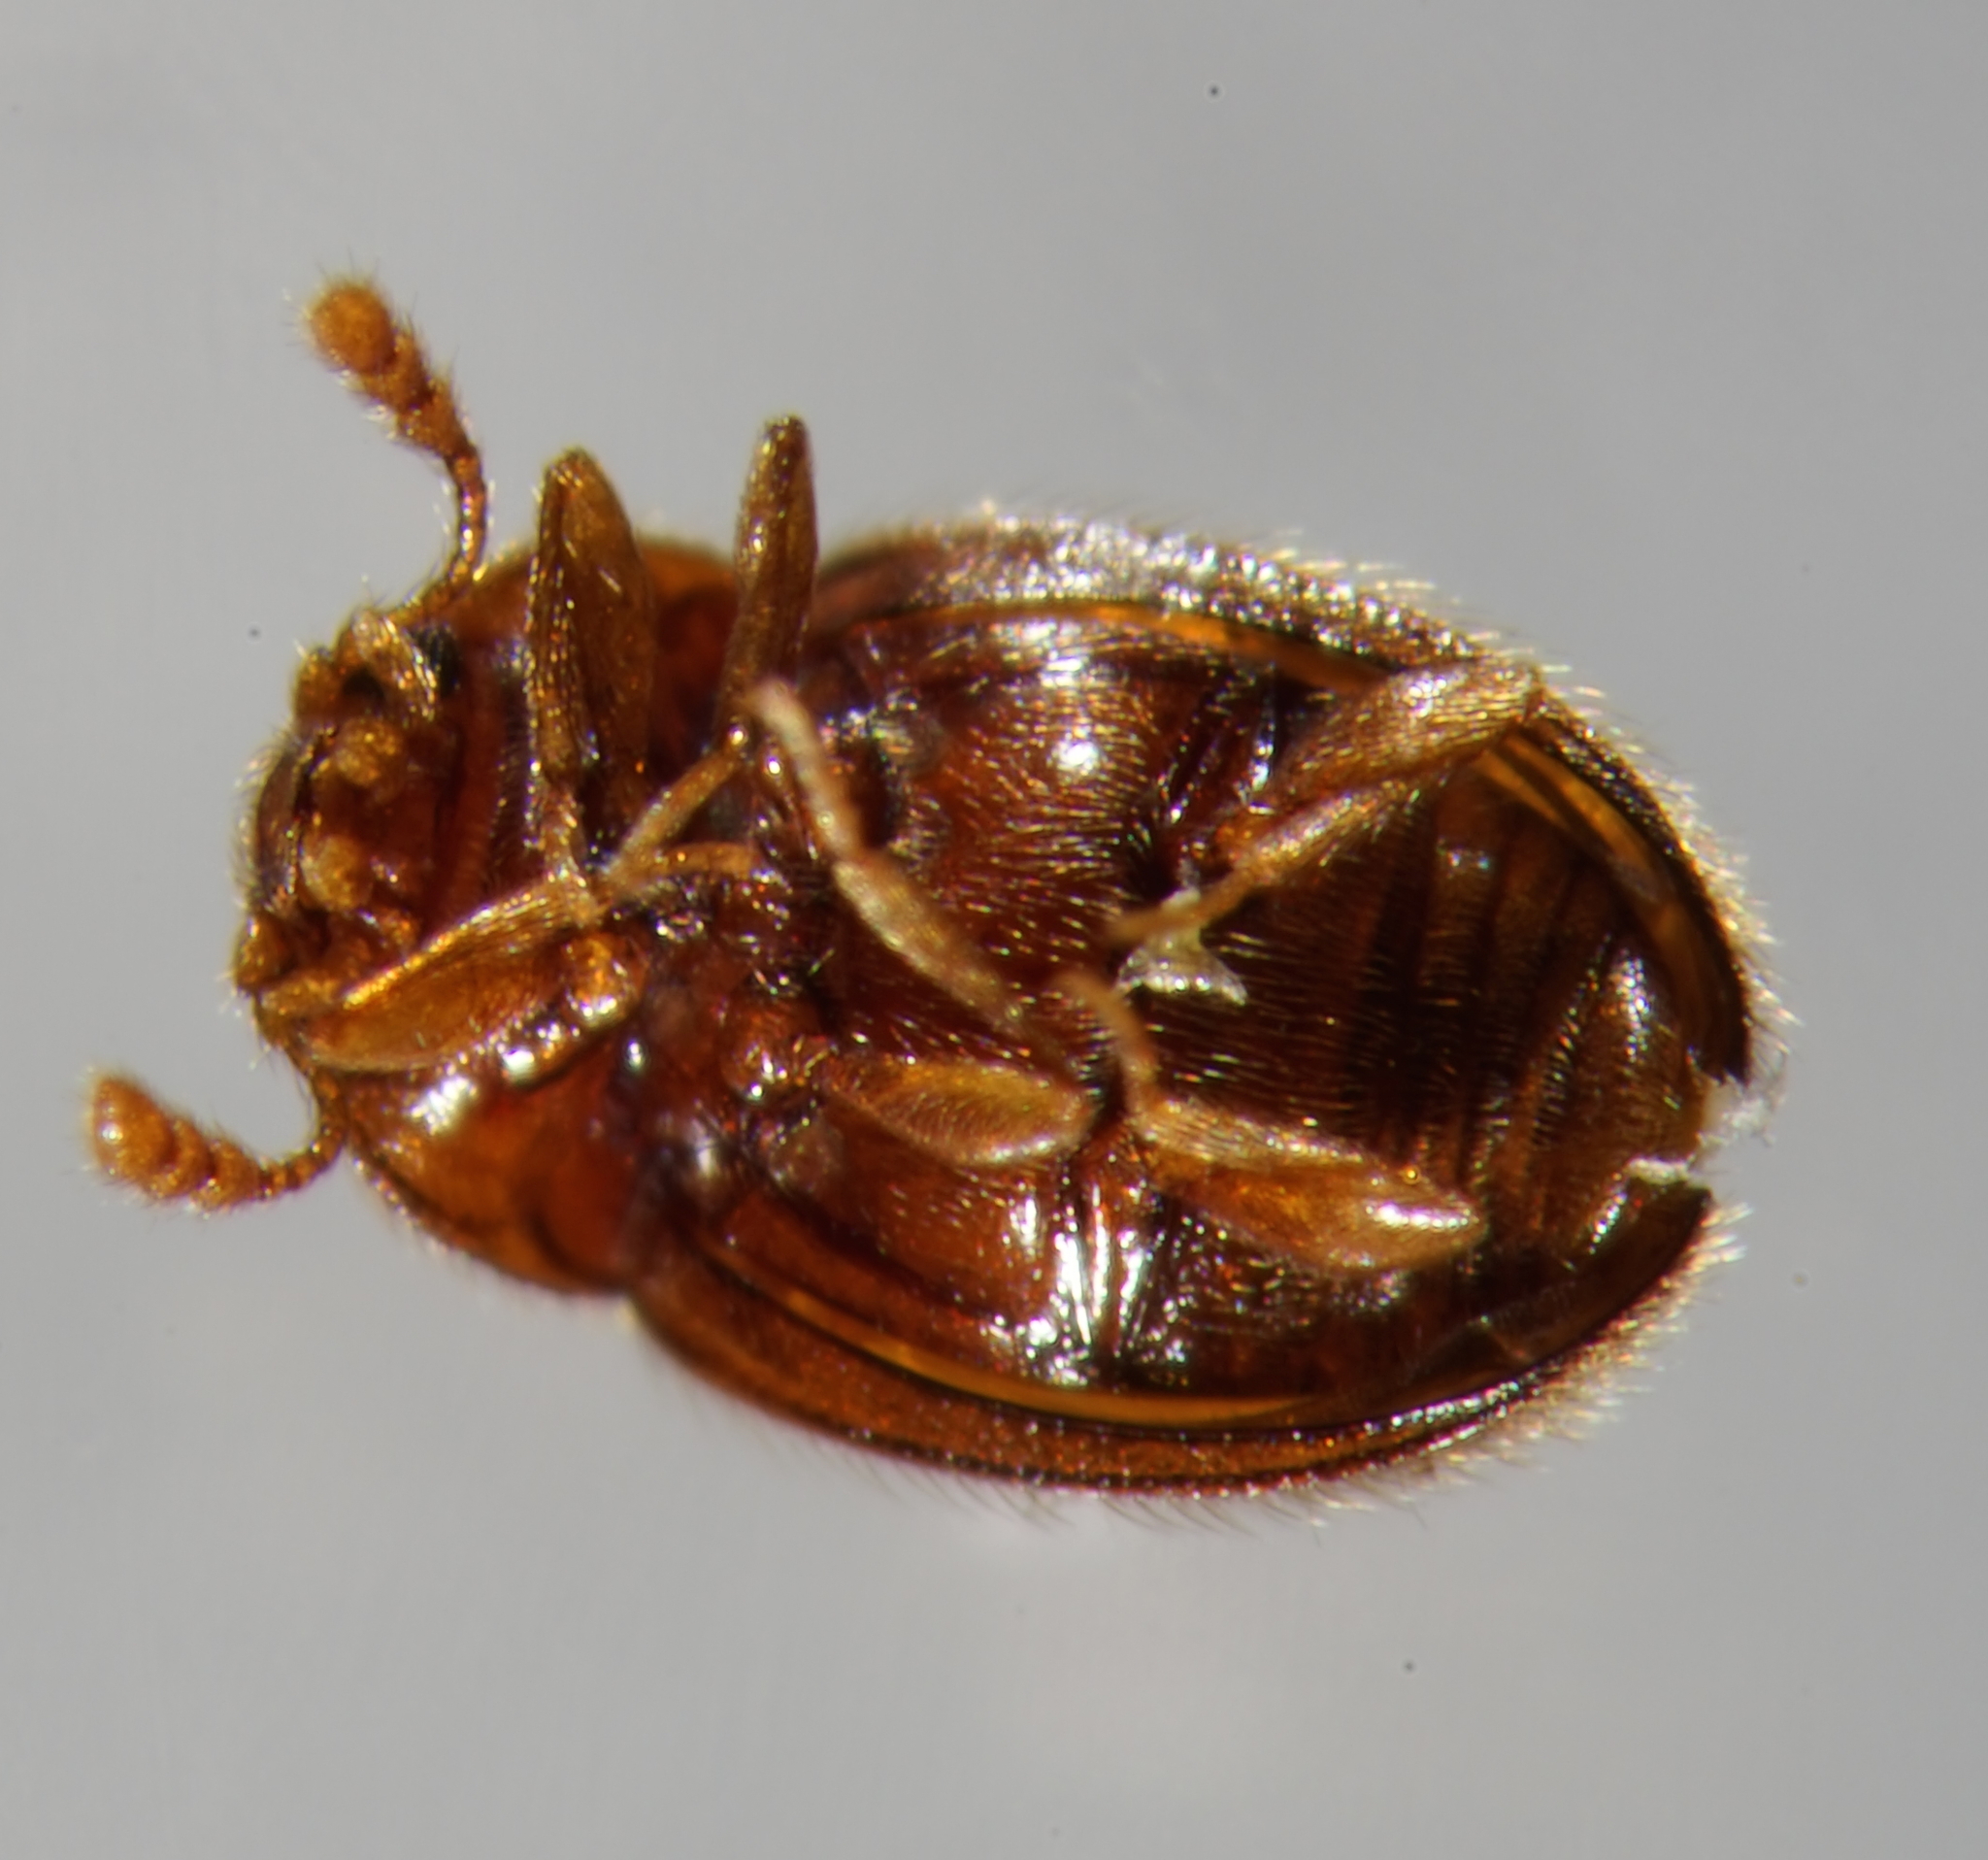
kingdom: Animalia
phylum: Arthropoda
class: Insecta
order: Coleoptera
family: Anamorphidae
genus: Symbiotes
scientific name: Symbiotes gibberosus
